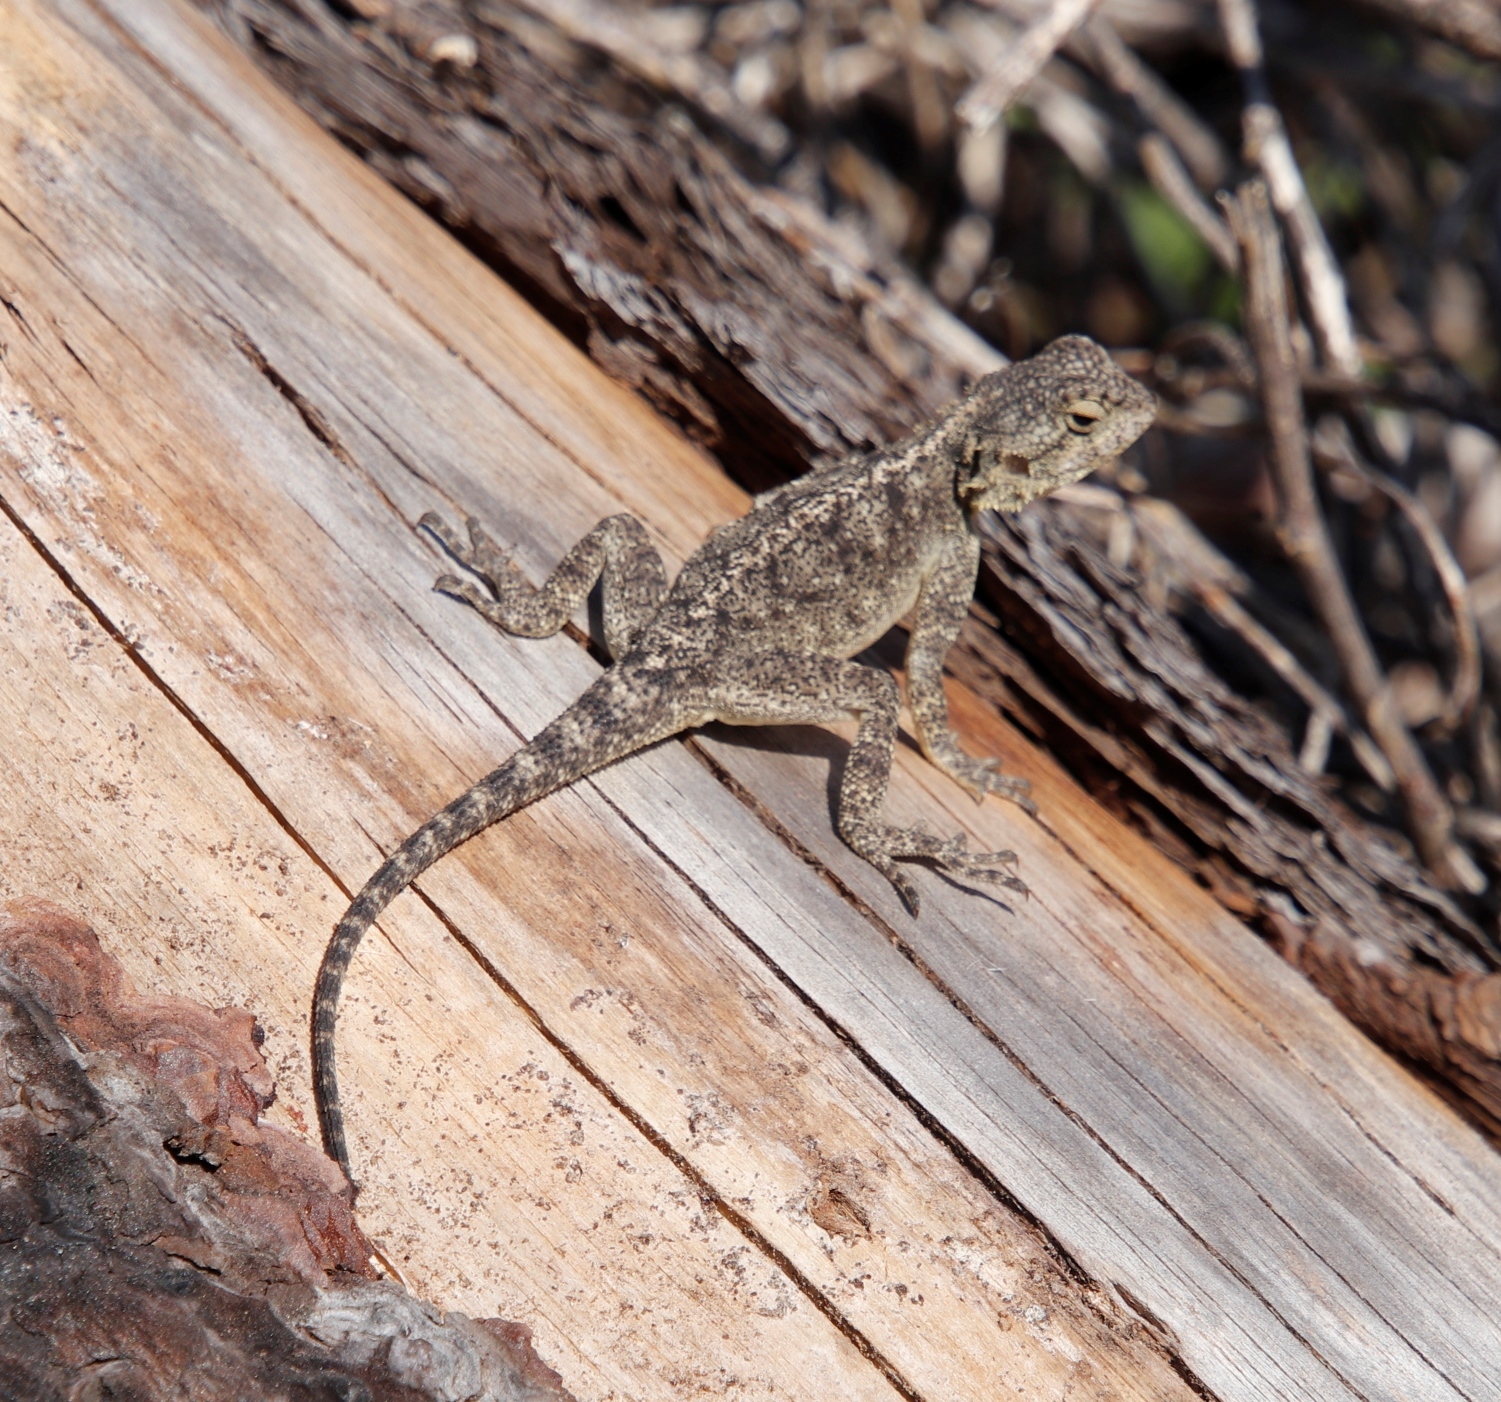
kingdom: Animalia
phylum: Chordata
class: Squamata
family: Agamidae
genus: Agama
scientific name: Agama atra
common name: Southern african rock agama
